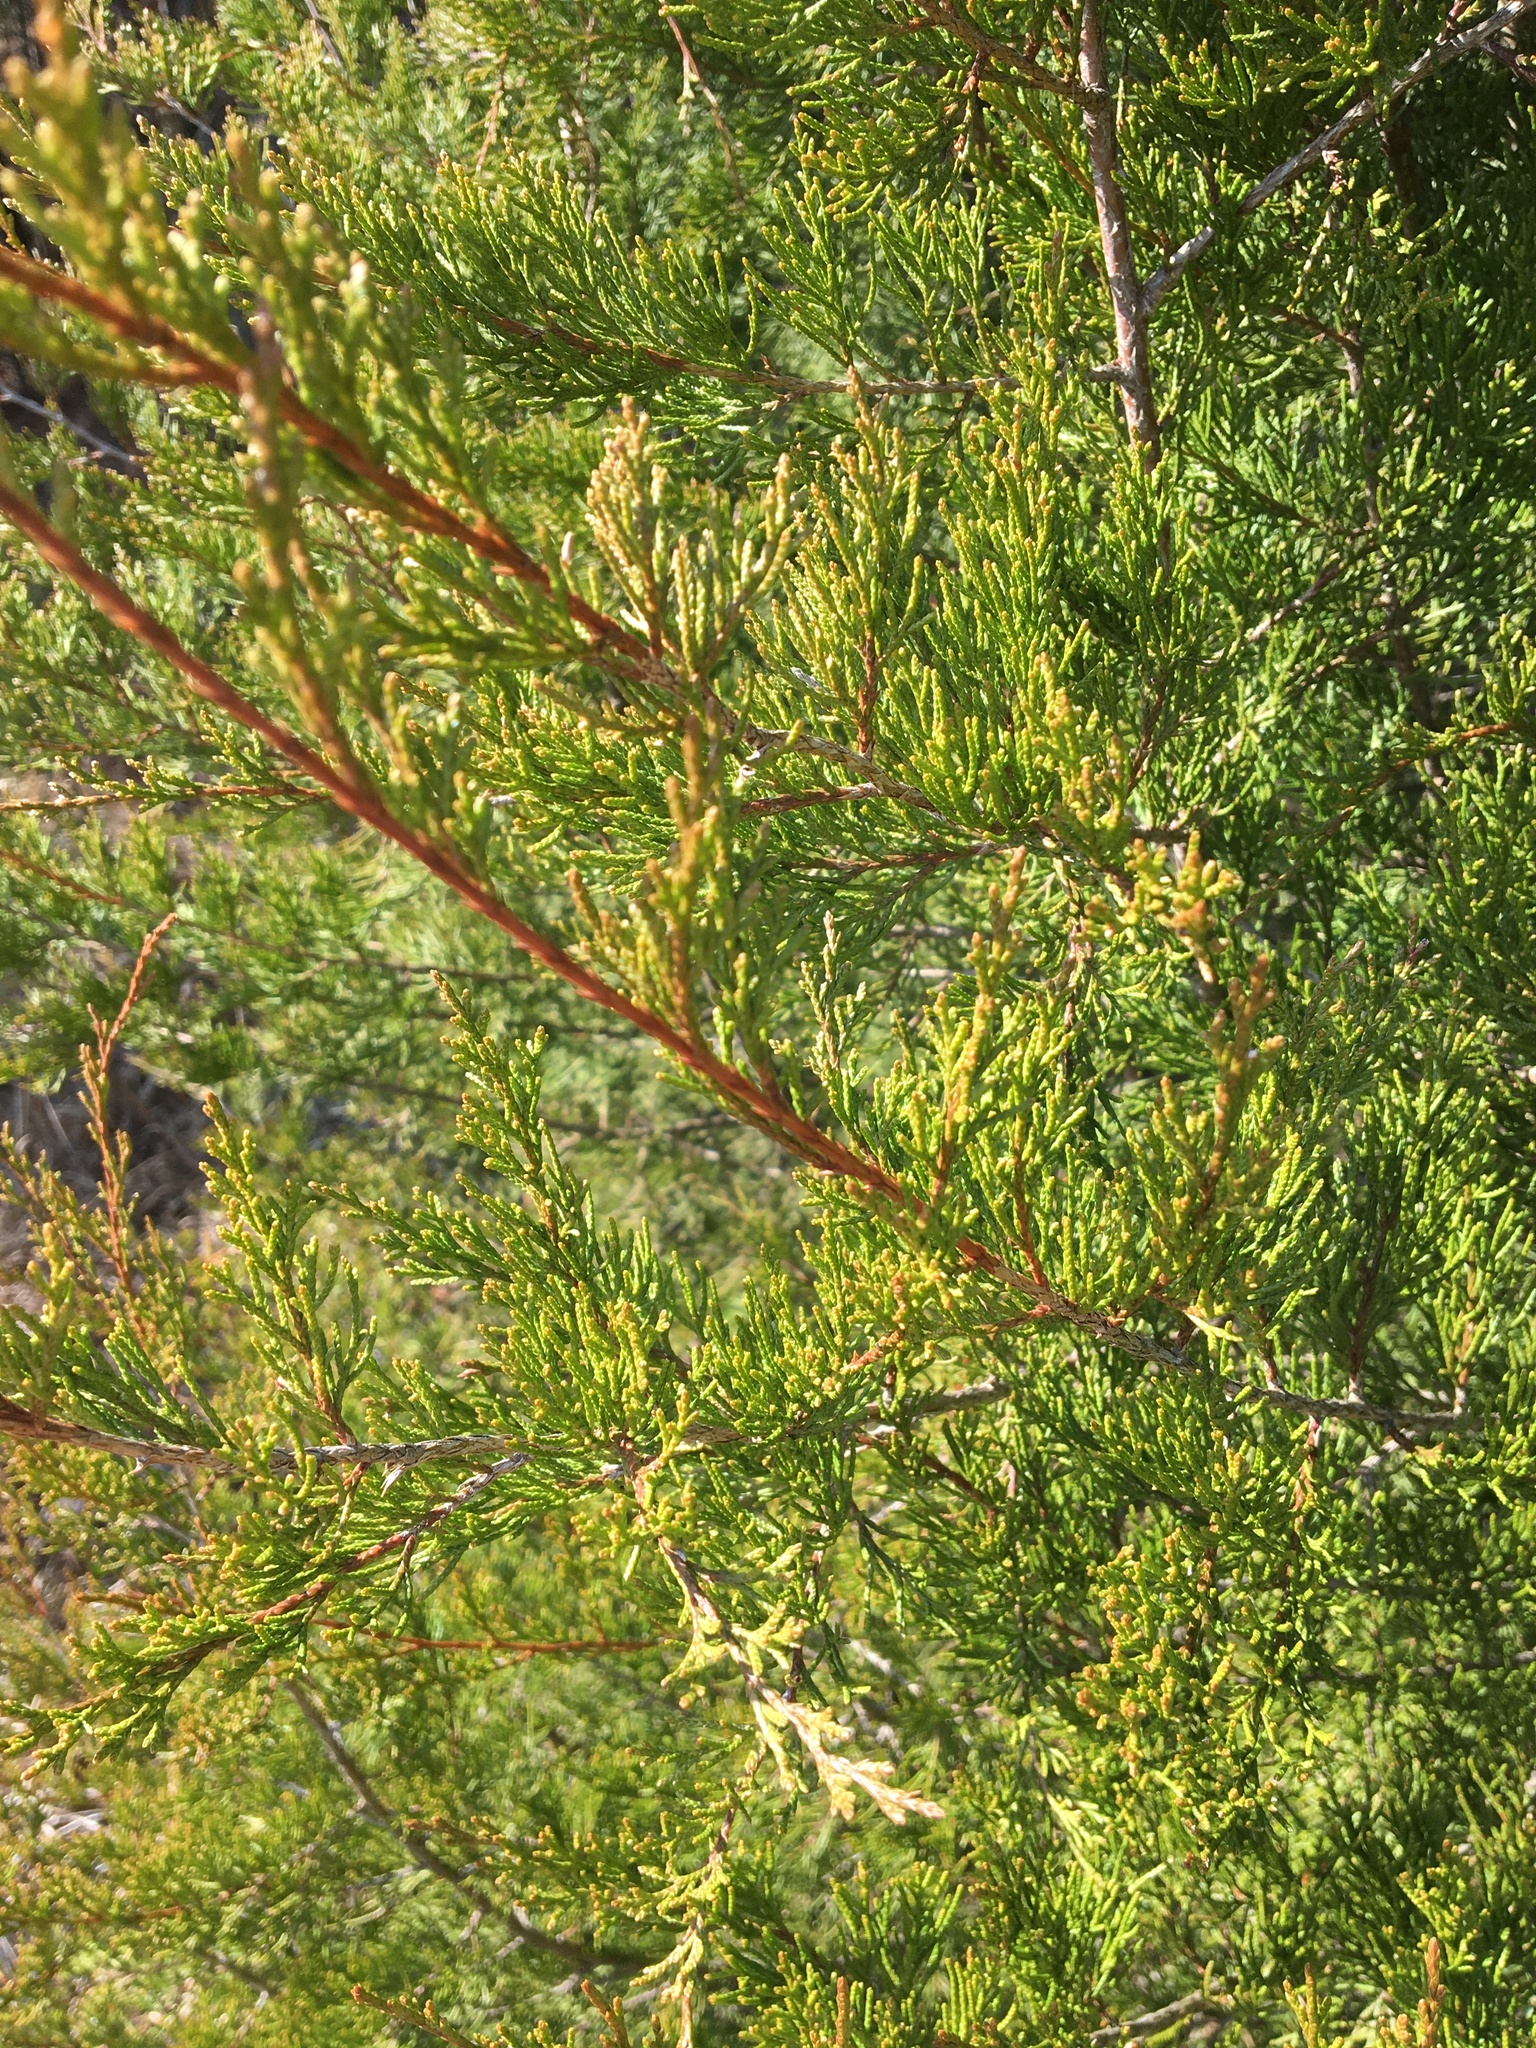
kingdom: Plantae
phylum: Tracheophyta
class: Pinopsida
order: Pinales
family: Cupressaceae
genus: Juniperus
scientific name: Juniperus virginiana
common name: Red juniper
